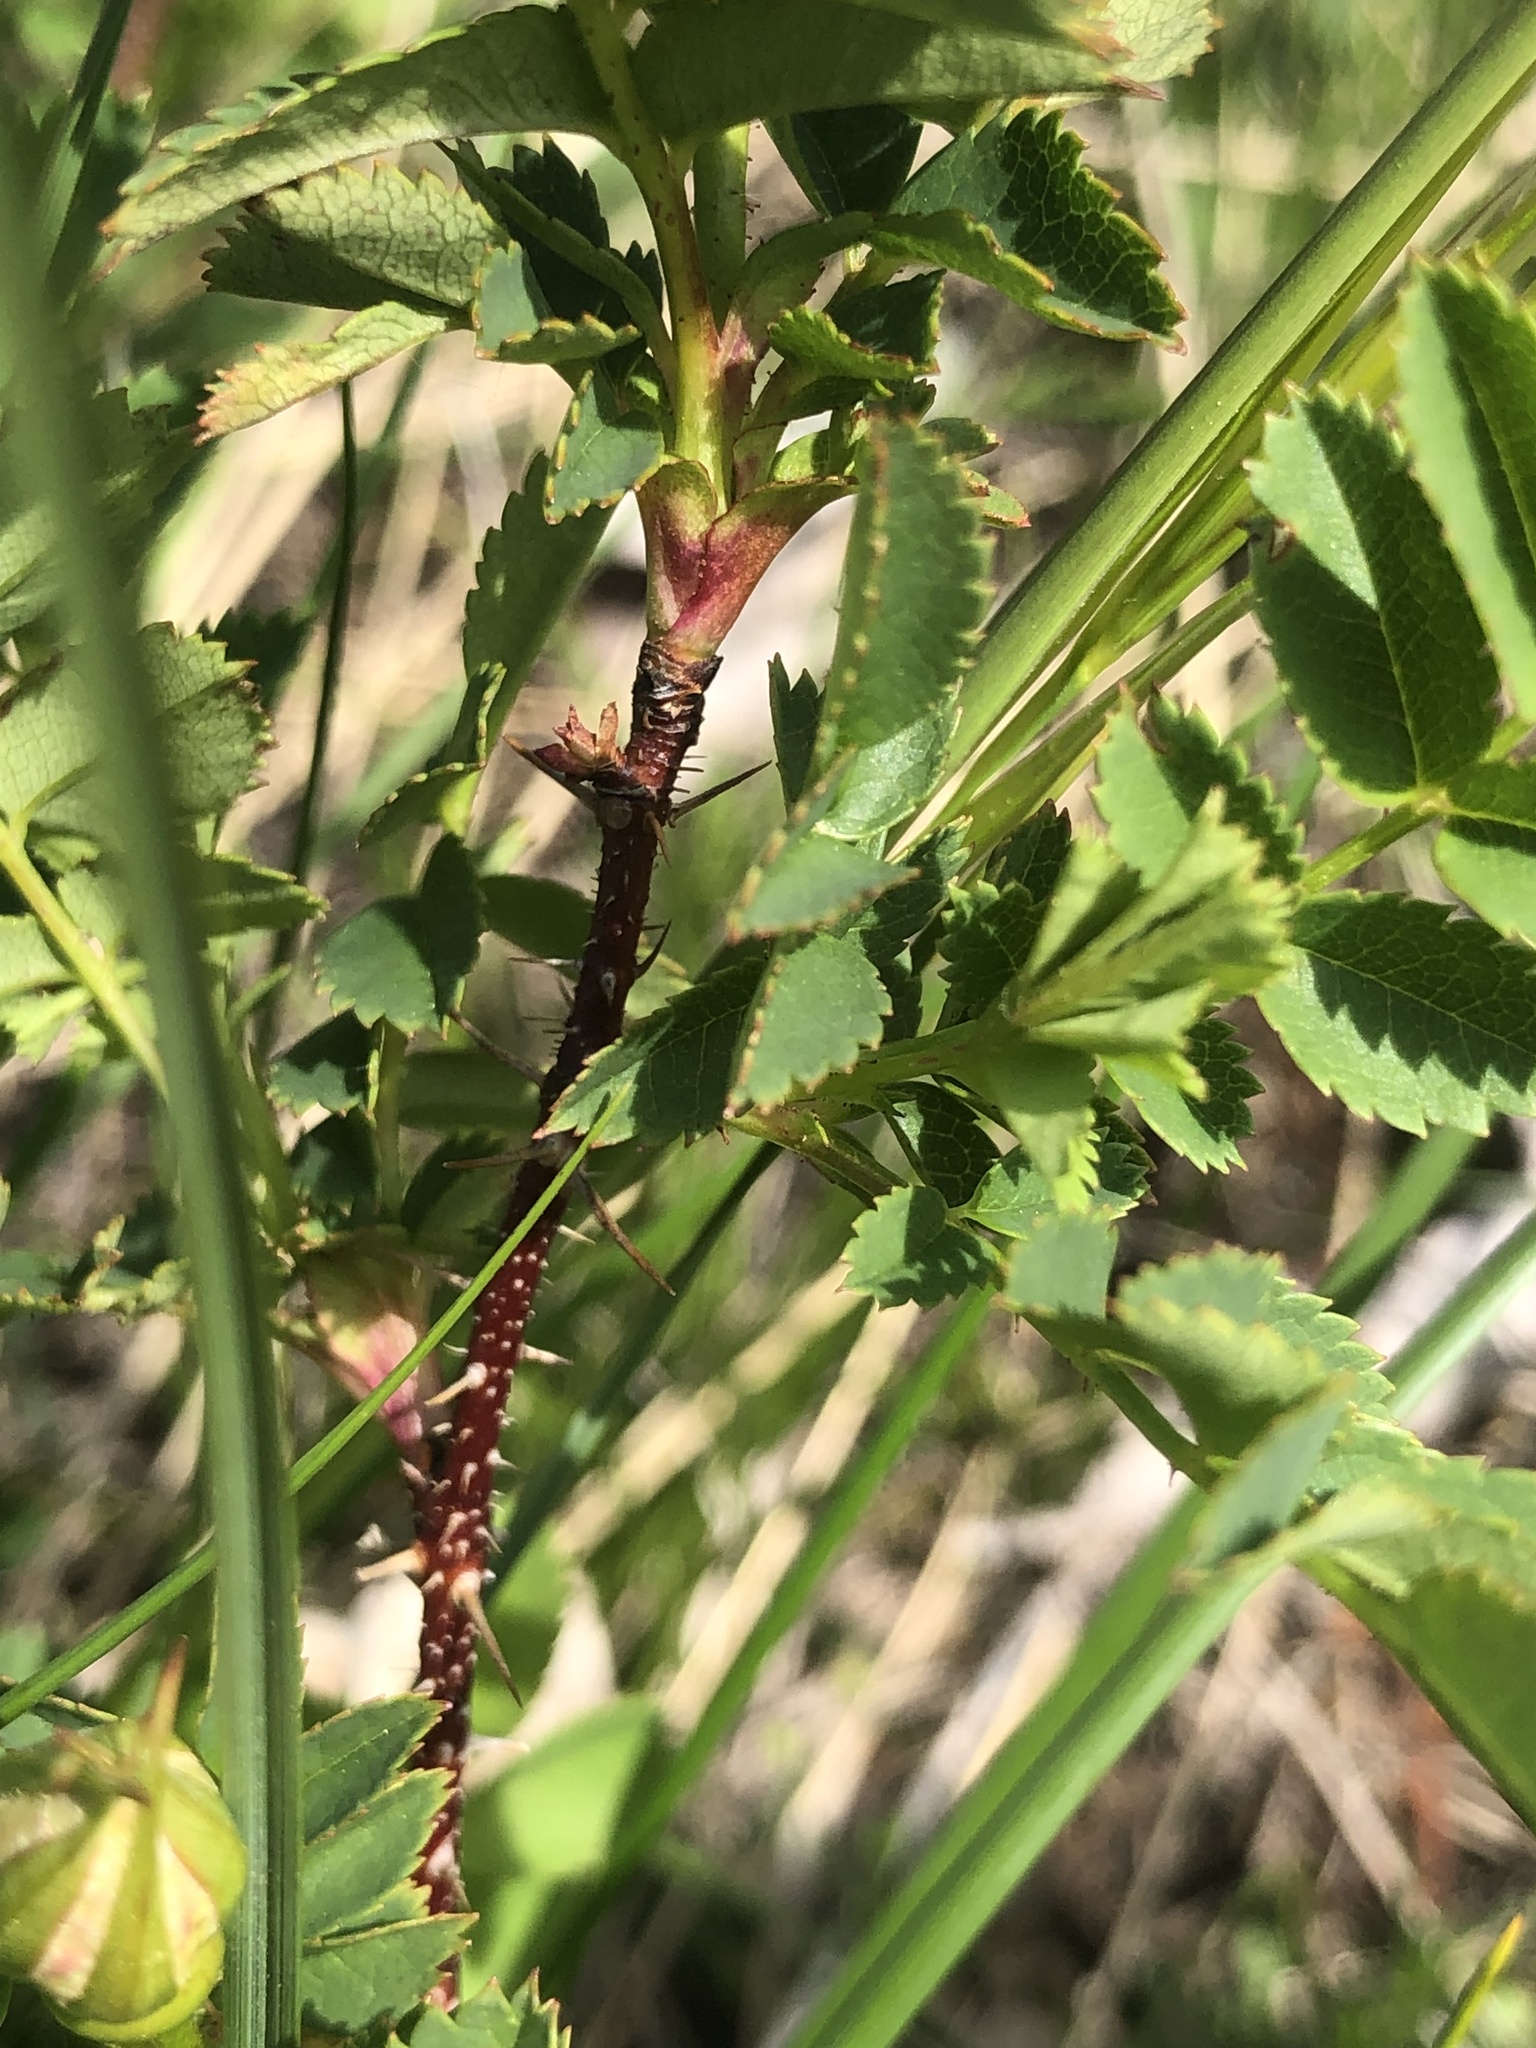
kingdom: Plantae
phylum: Tracheophyta
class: Magnoliopsida
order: Rosales
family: Rosaceae
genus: Rosa
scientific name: Rosa spinosissima
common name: Burnet rose
